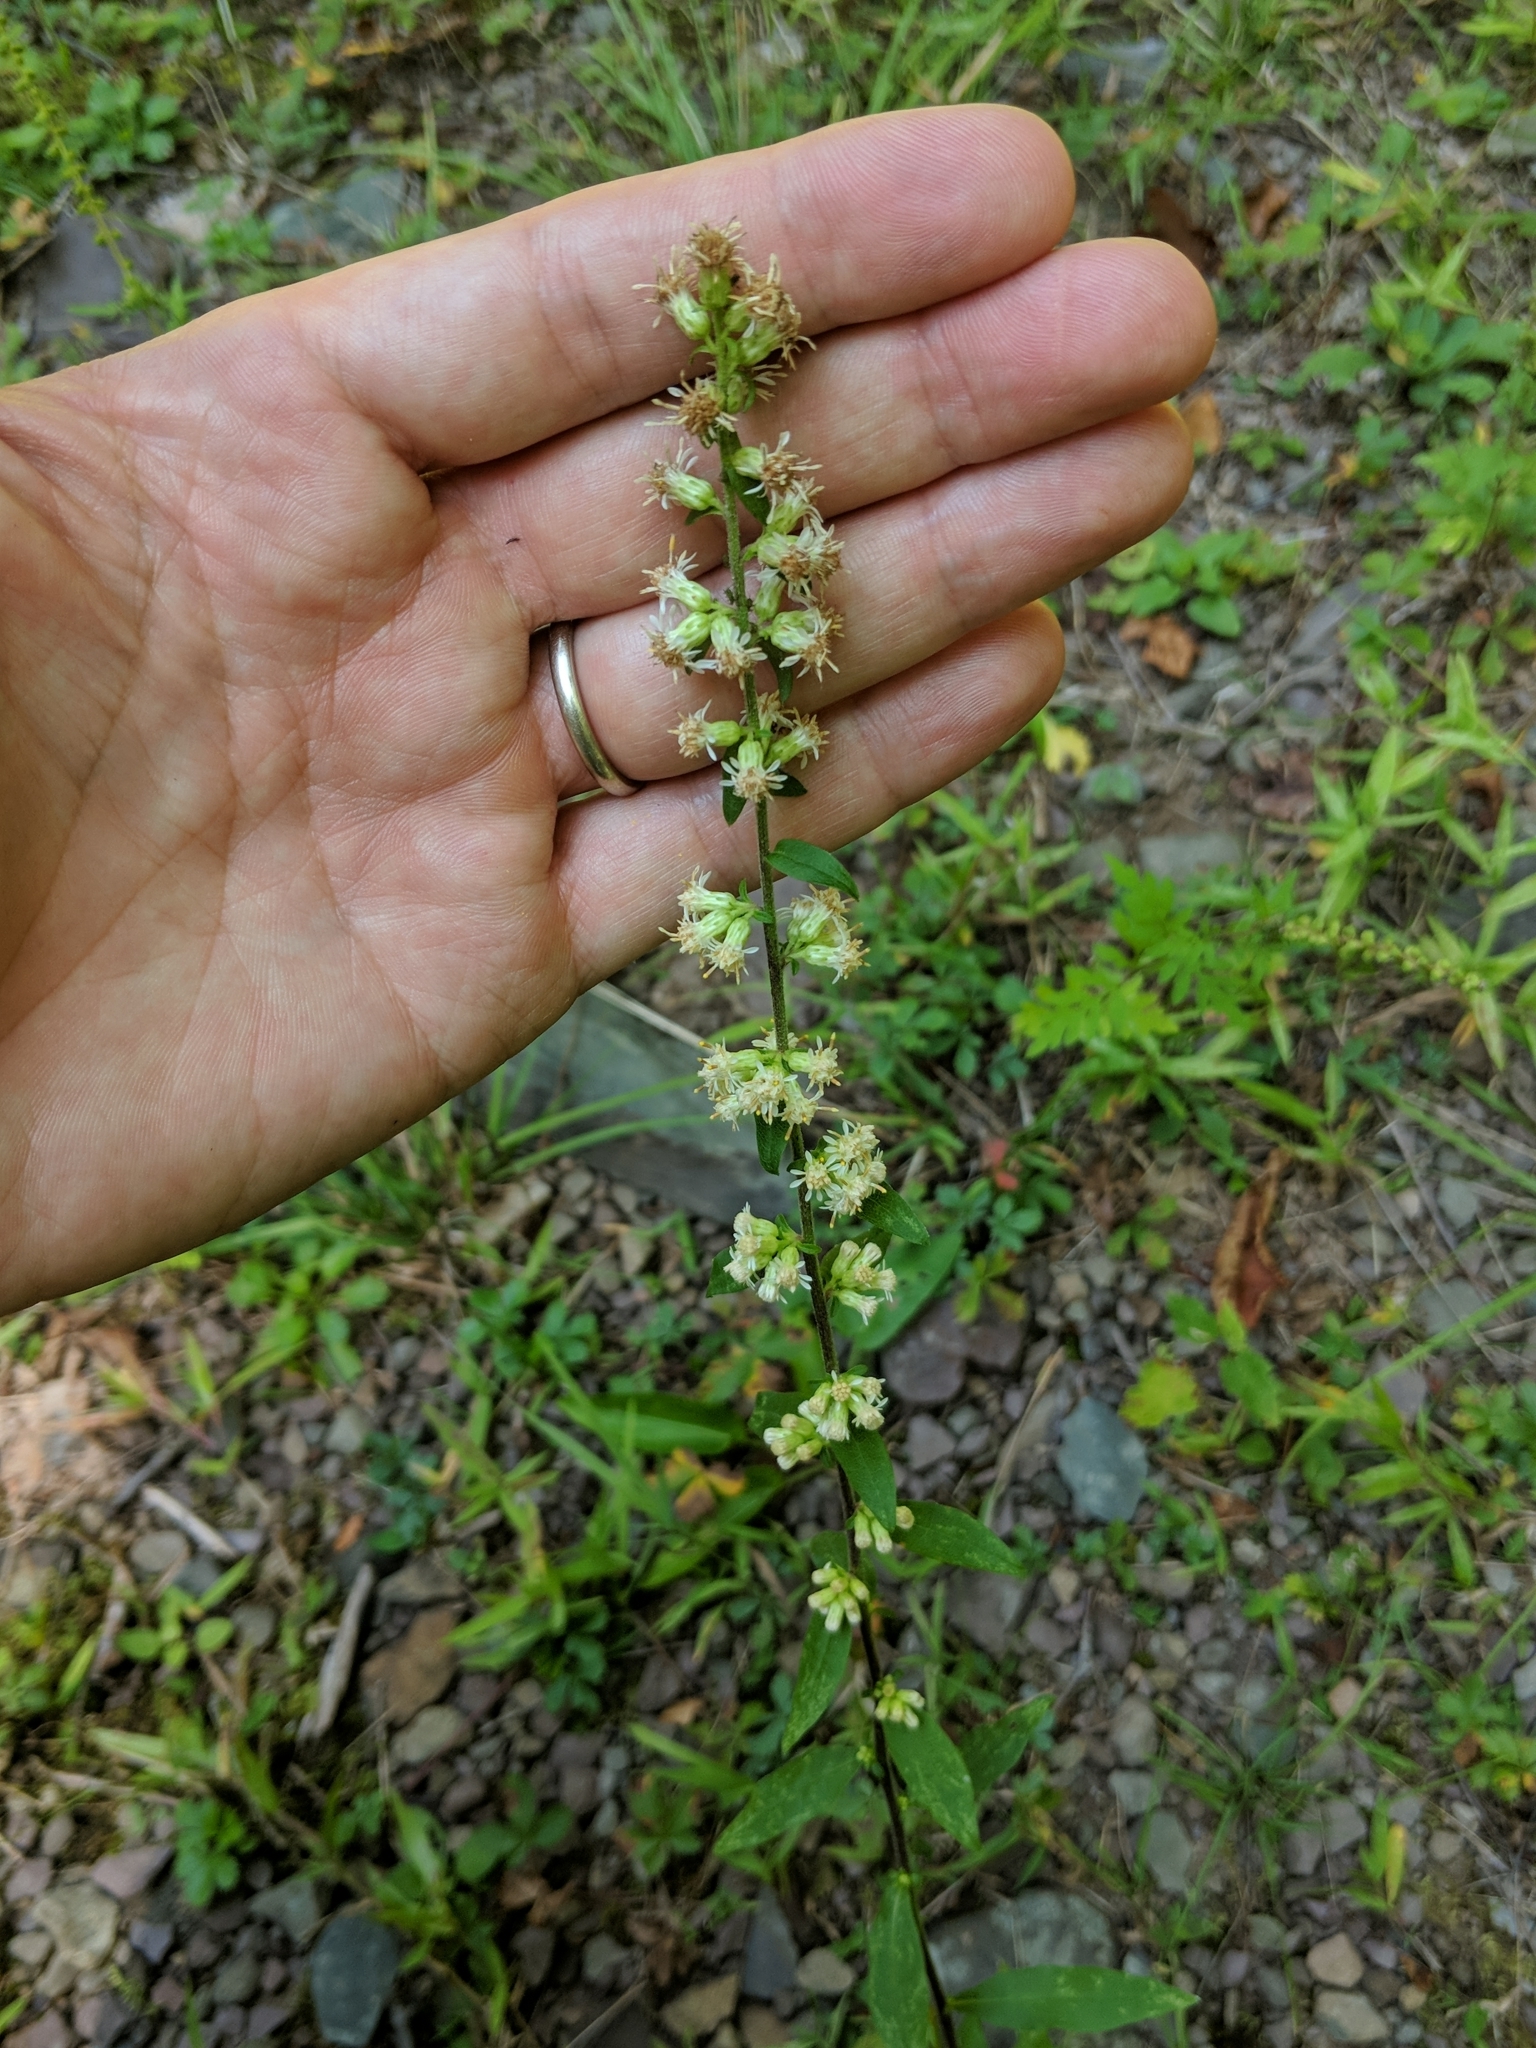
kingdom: Plantae
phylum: Tracheophyta
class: Magnoliopsida
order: Asterales
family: Asteraceae
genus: Solidago
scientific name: Solidago bicolor
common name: Silverrod
